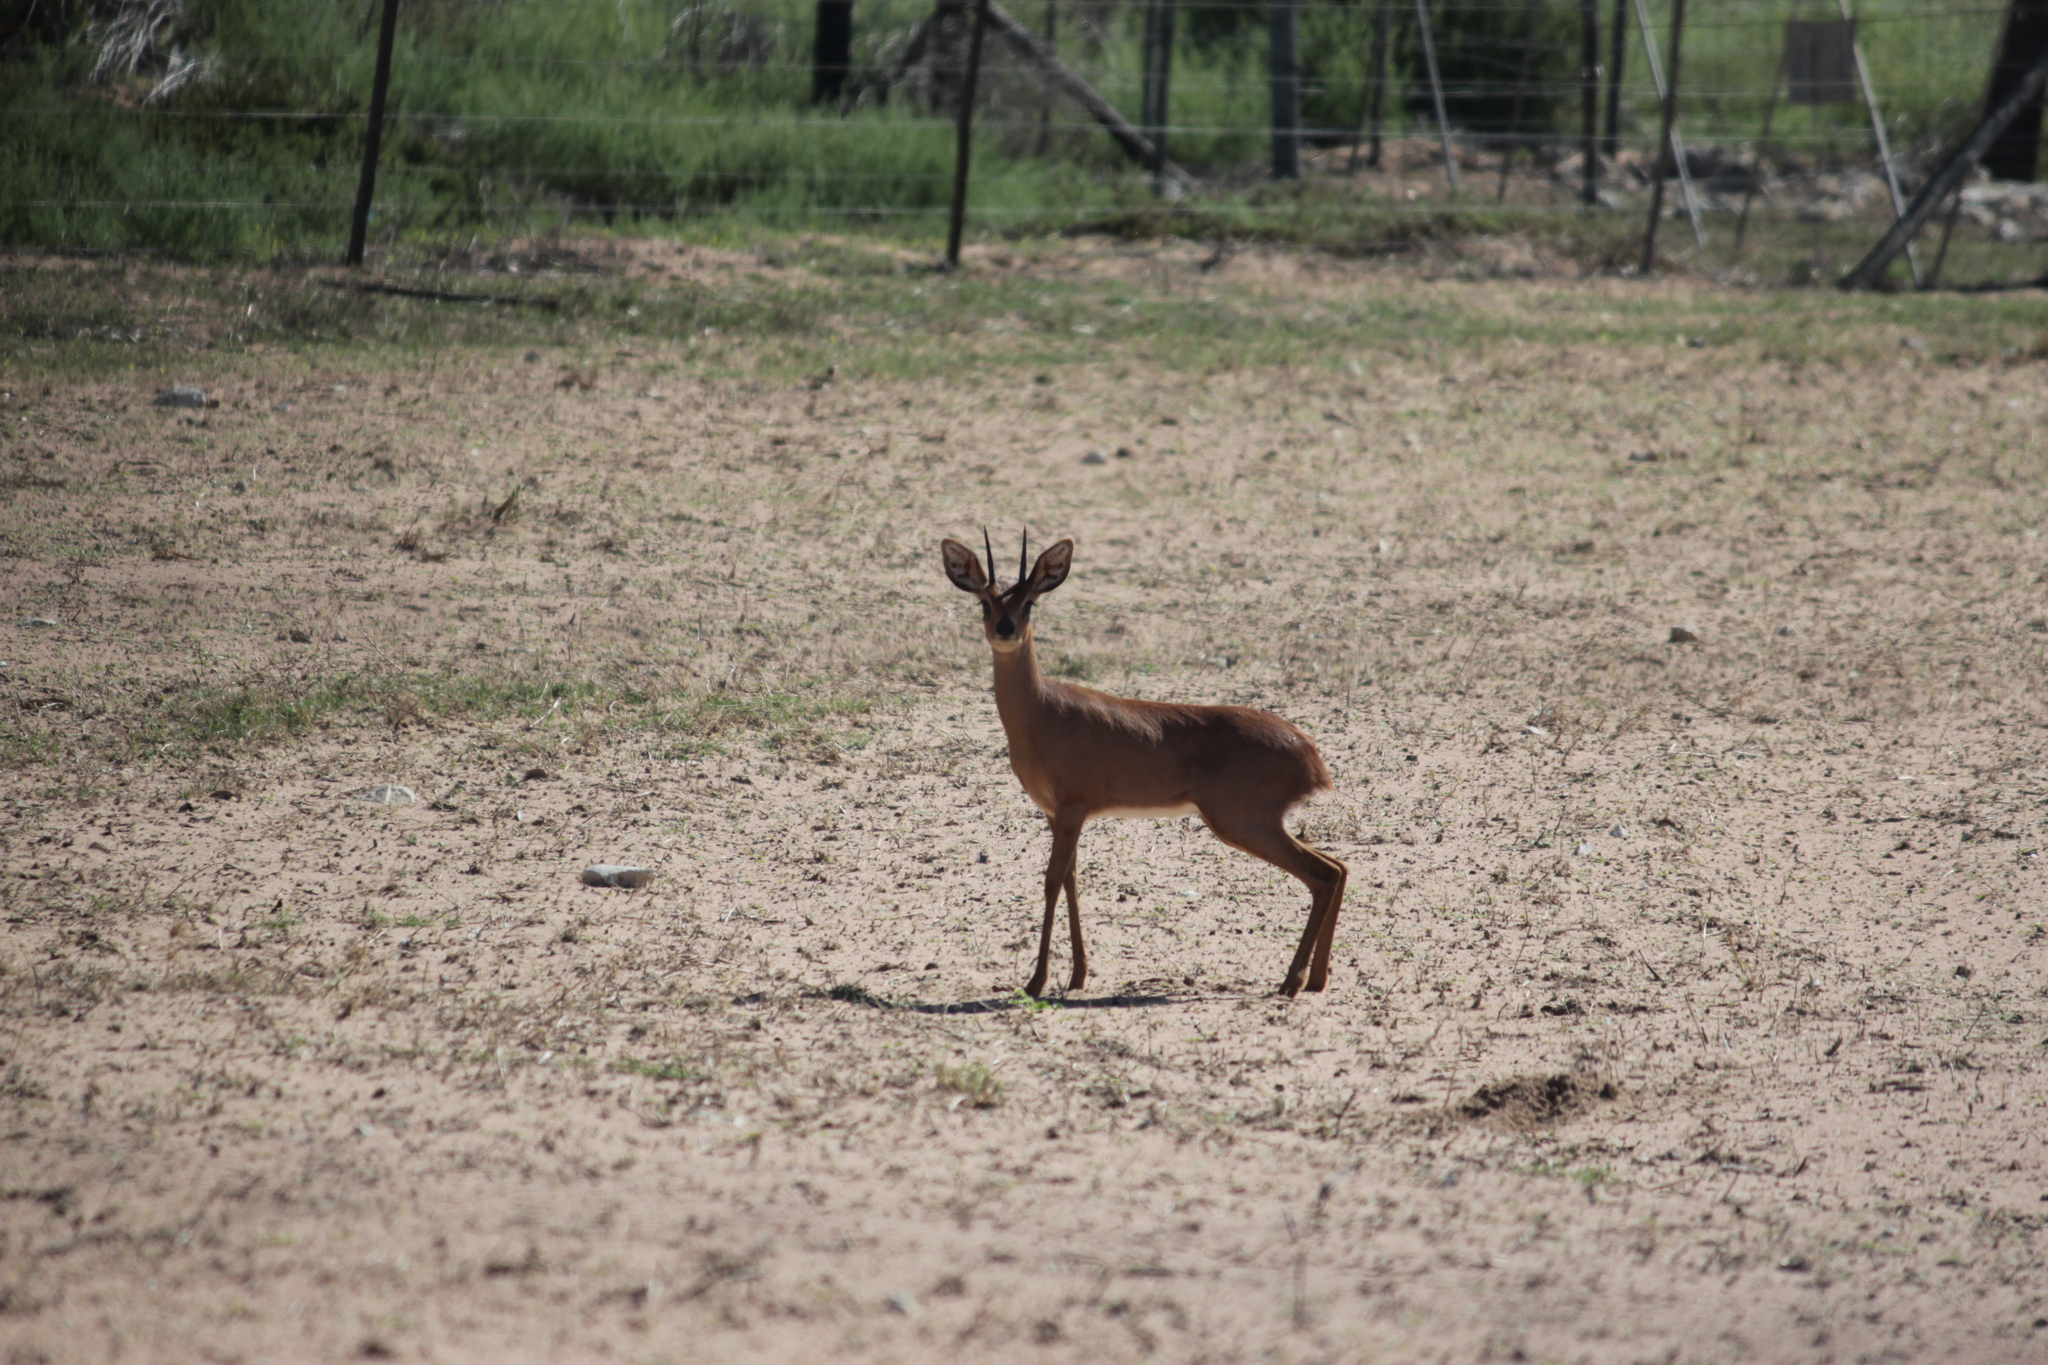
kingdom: Animalia
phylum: Chordata
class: Mammalia
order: Artiodactyla
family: Bovidae
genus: Raphicerus
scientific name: Raphicerus campestris
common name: Steenbok
